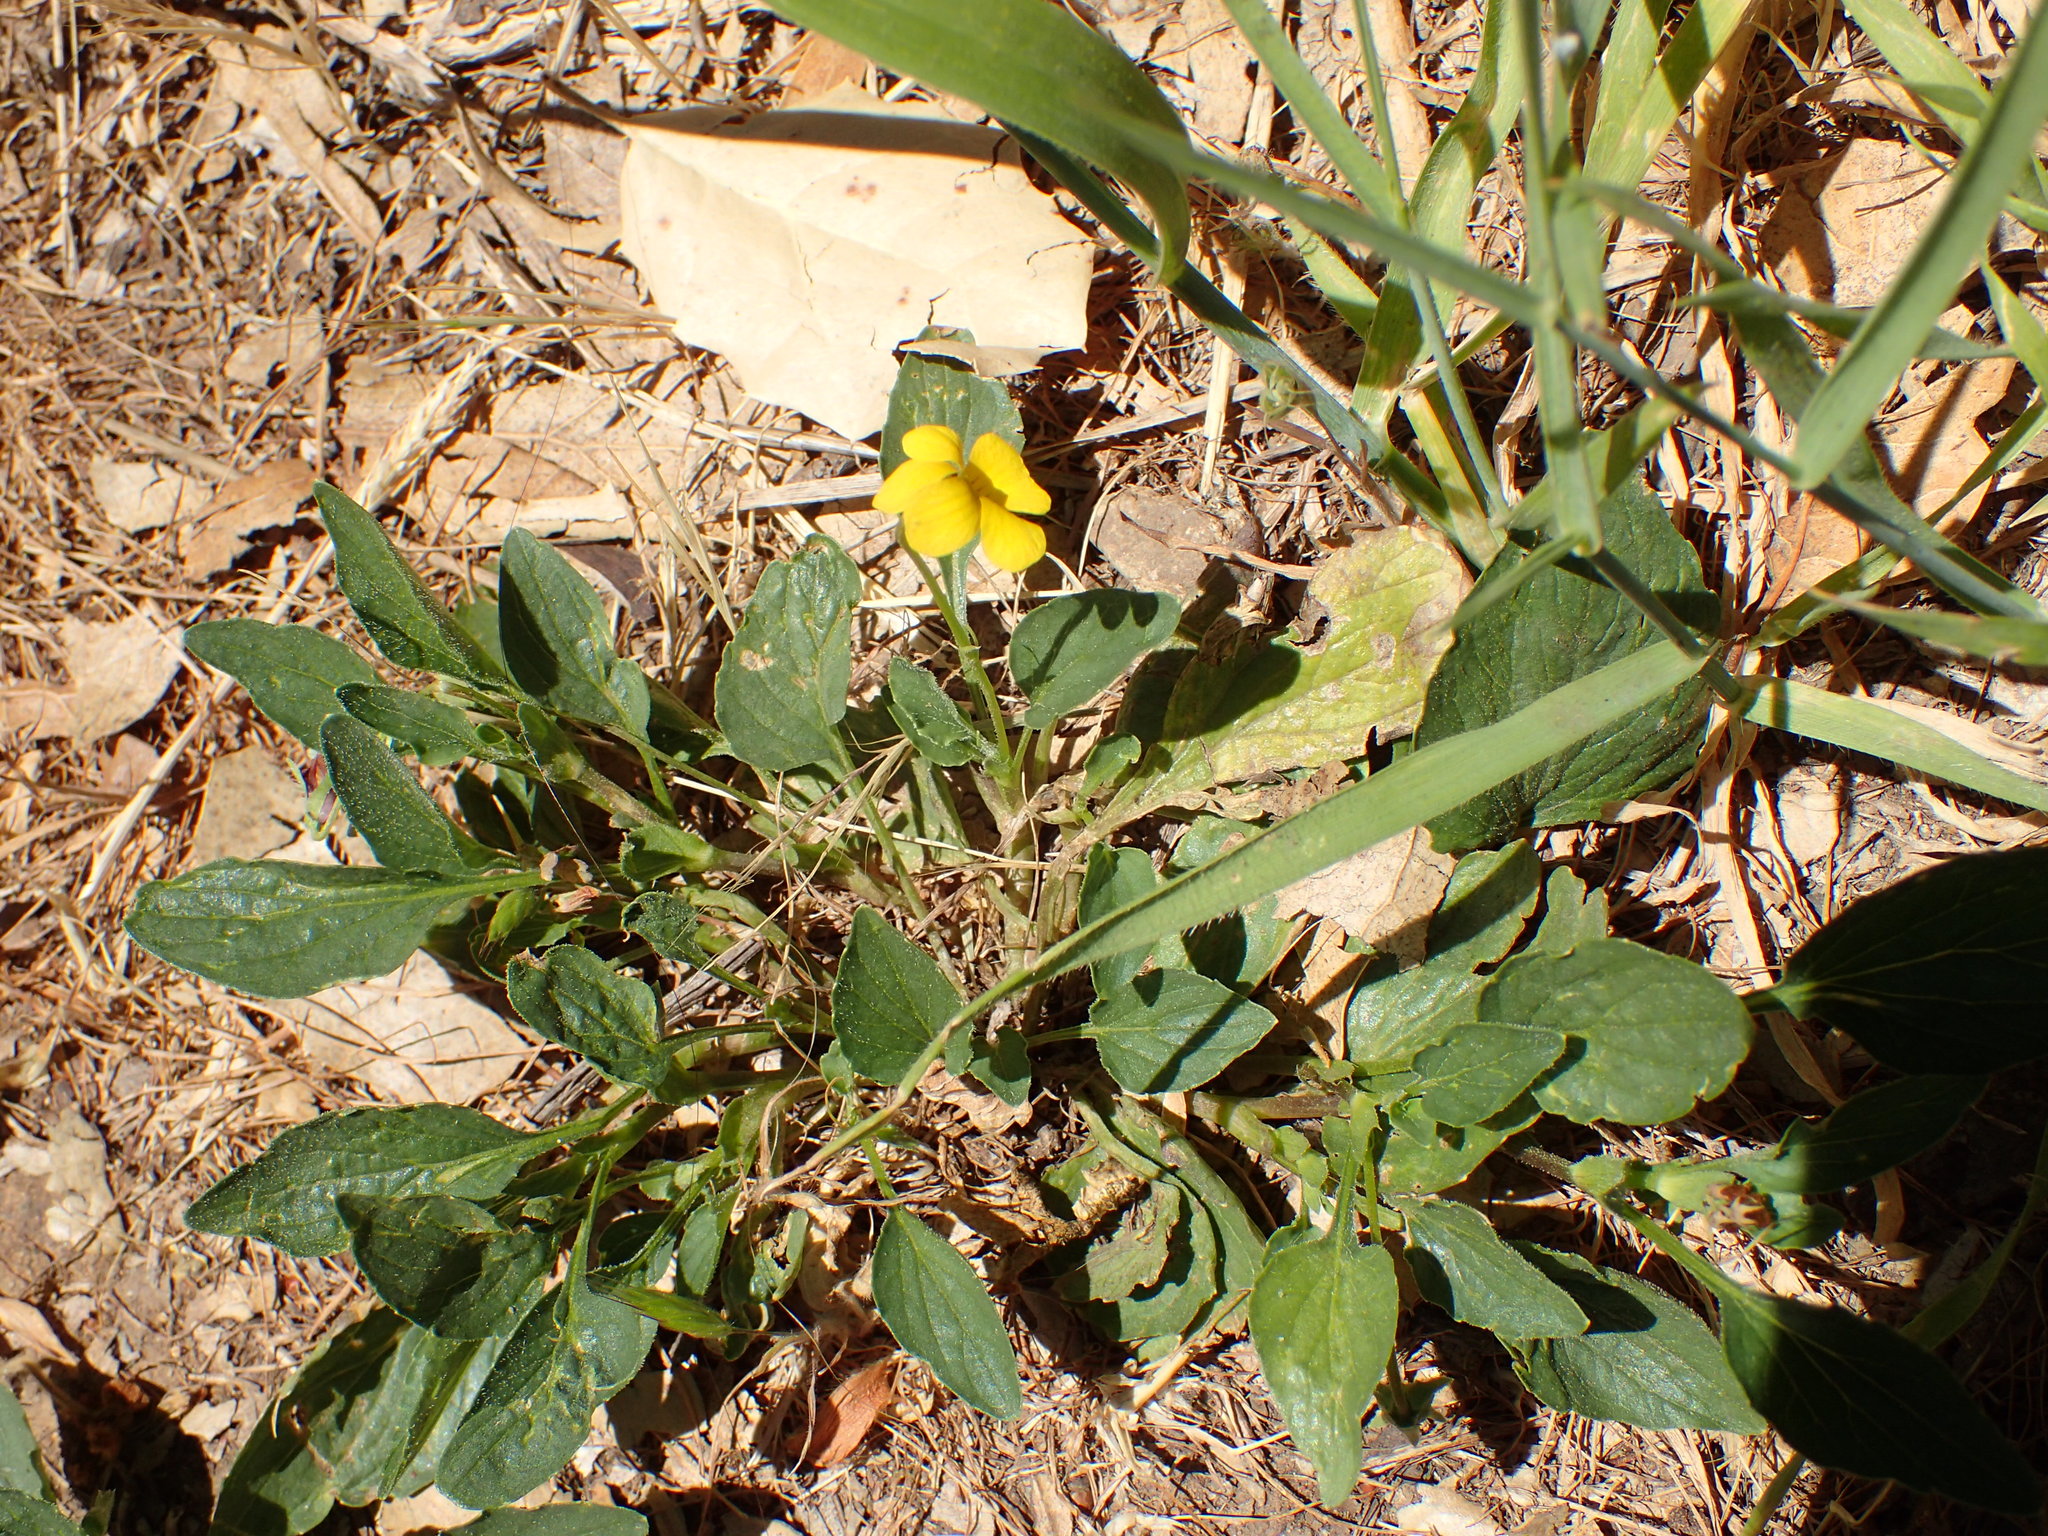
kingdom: Plantae
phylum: Tracheophyta
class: Magnoliopsida
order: Malpighiales
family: Violaceae
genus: Viola
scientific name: Viola purpurea
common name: Pine violet
